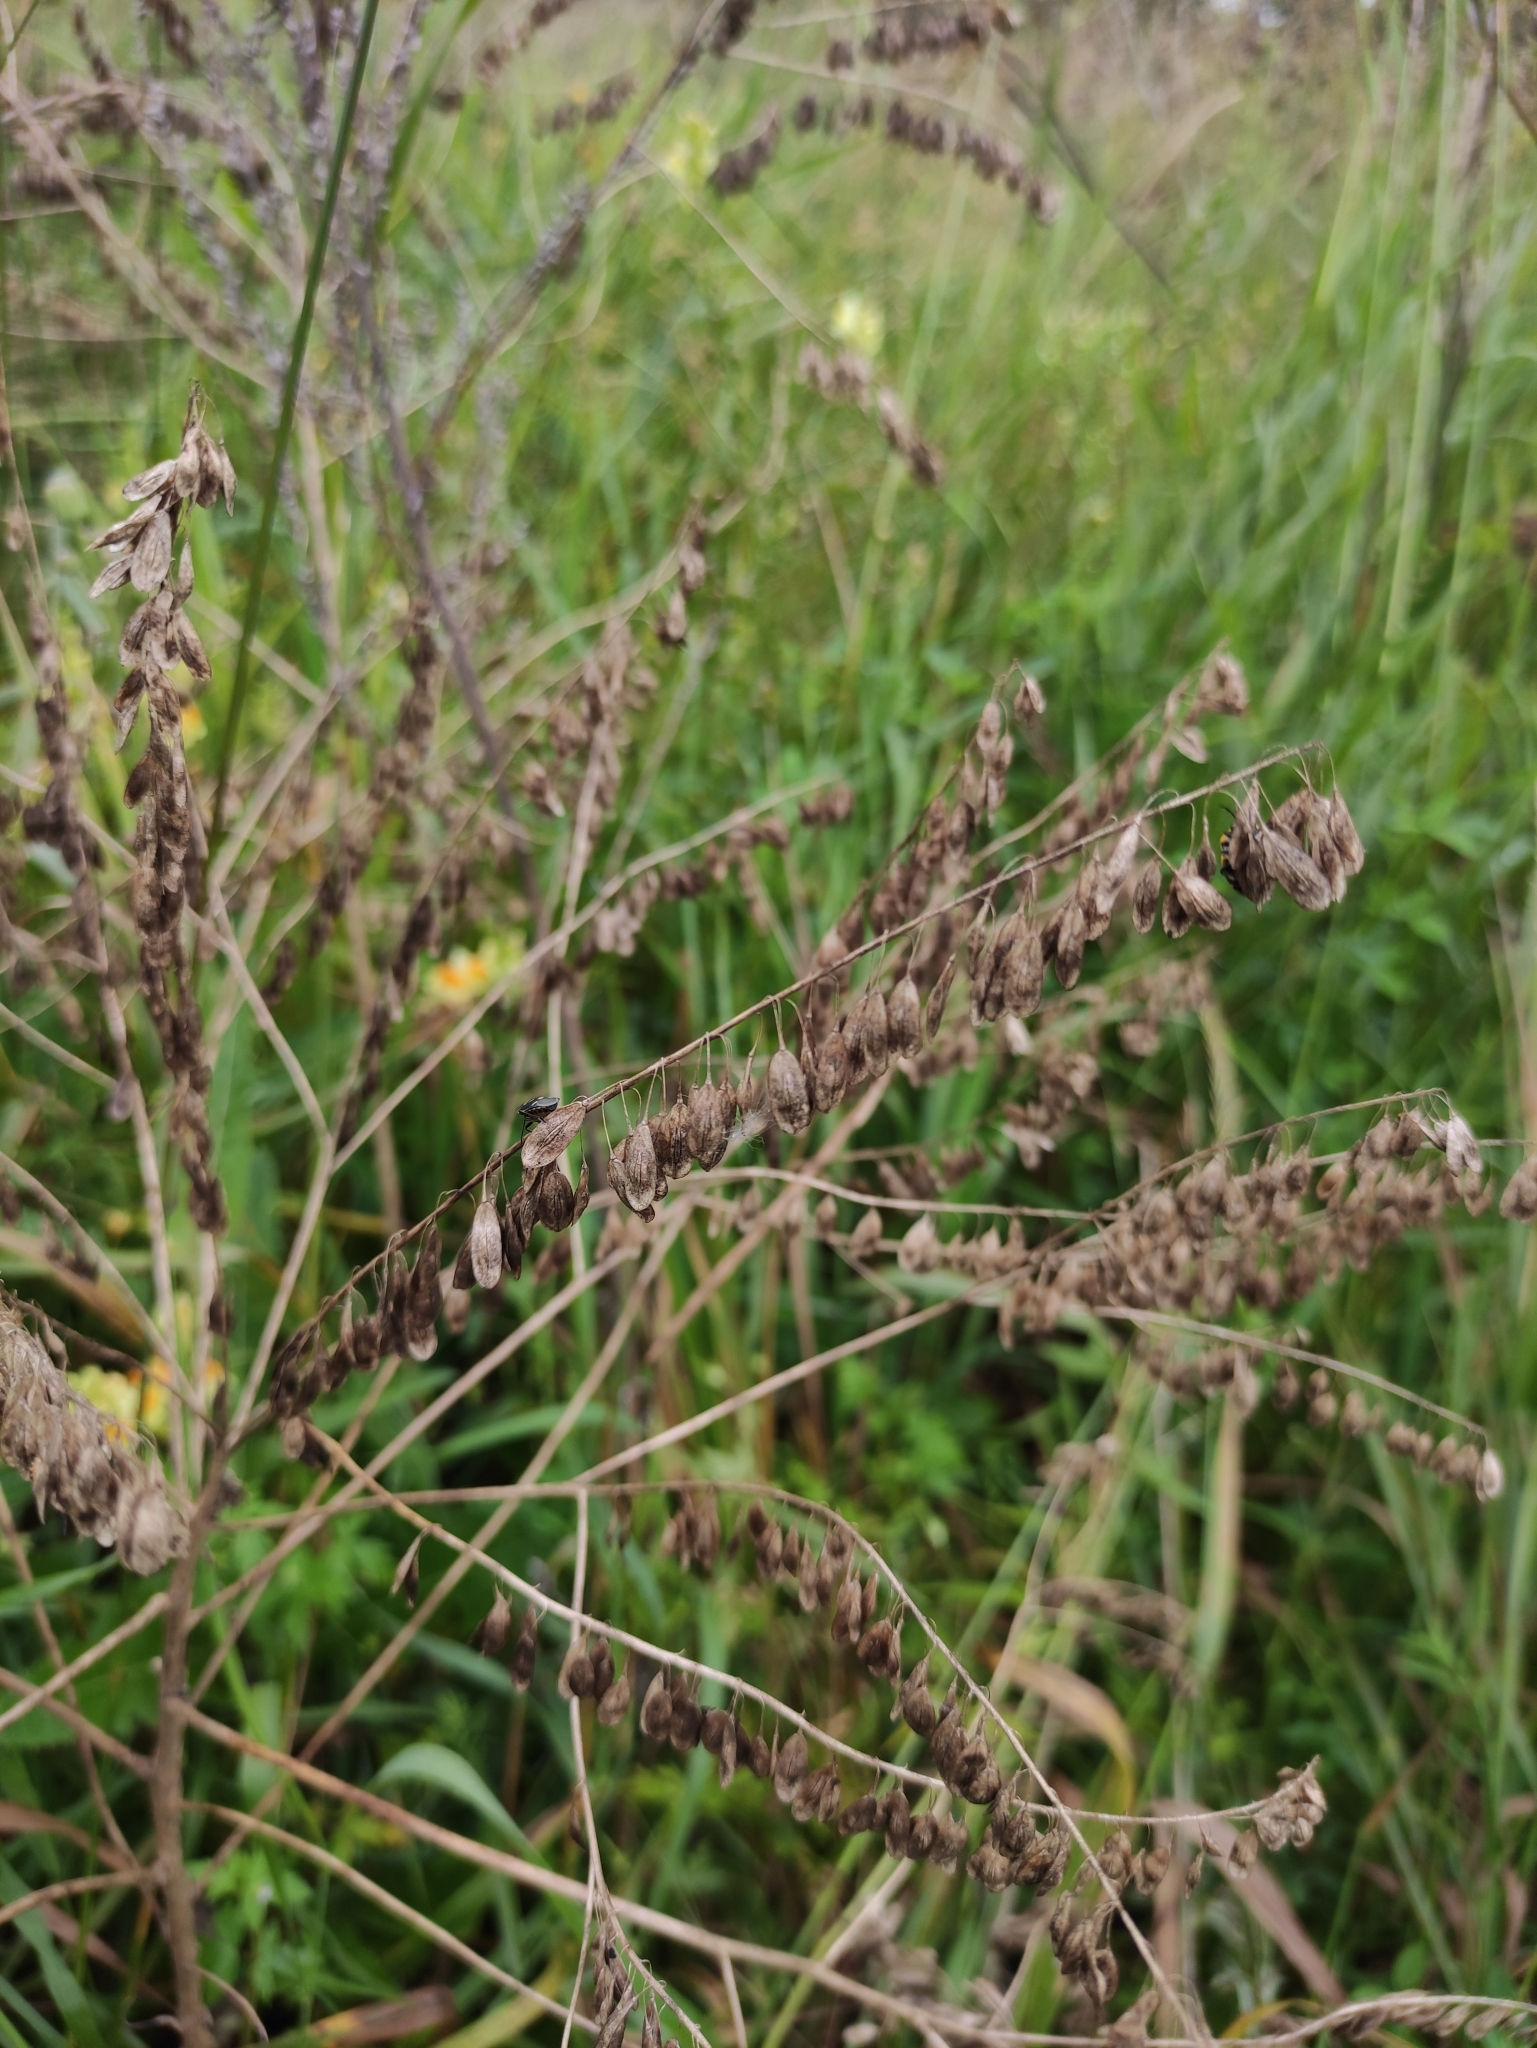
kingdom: Plantae
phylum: Tracheophyta
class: Magnoliopsida
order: Brassicales
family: Brassicaceae
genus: Isatis
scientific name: Isatis tinctoria
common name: Woad
